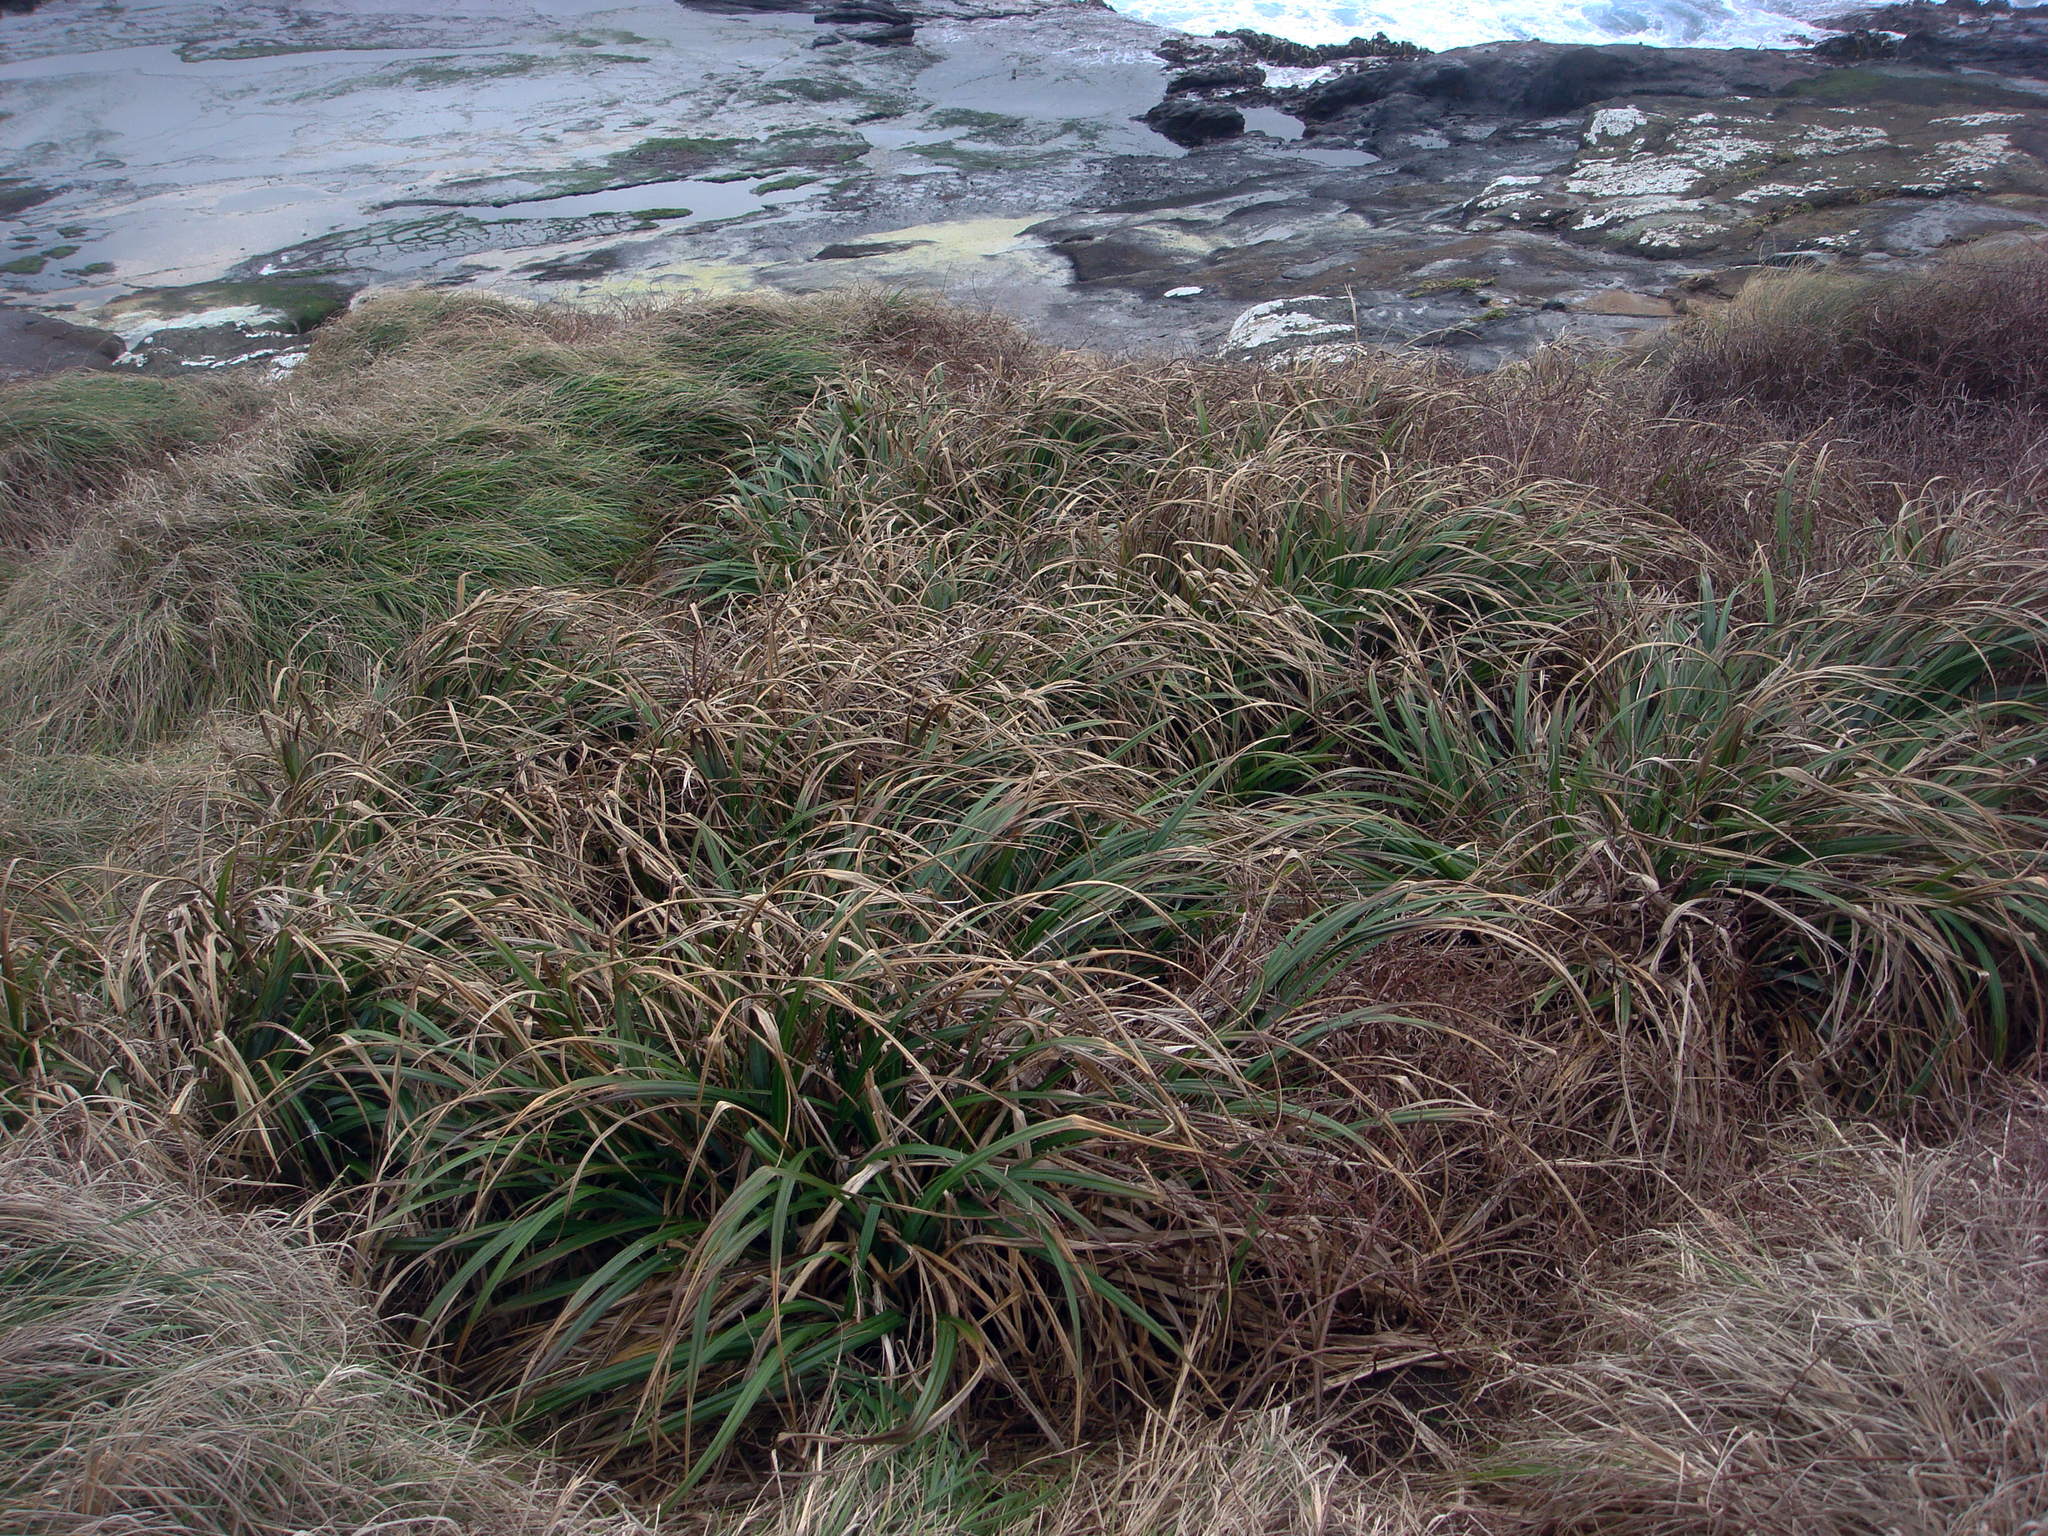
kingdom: Plantae
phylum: Tracheophyta
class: Liliopsida
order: Poales
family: Cyperaceae
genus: Carex
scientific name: Carex trifida
